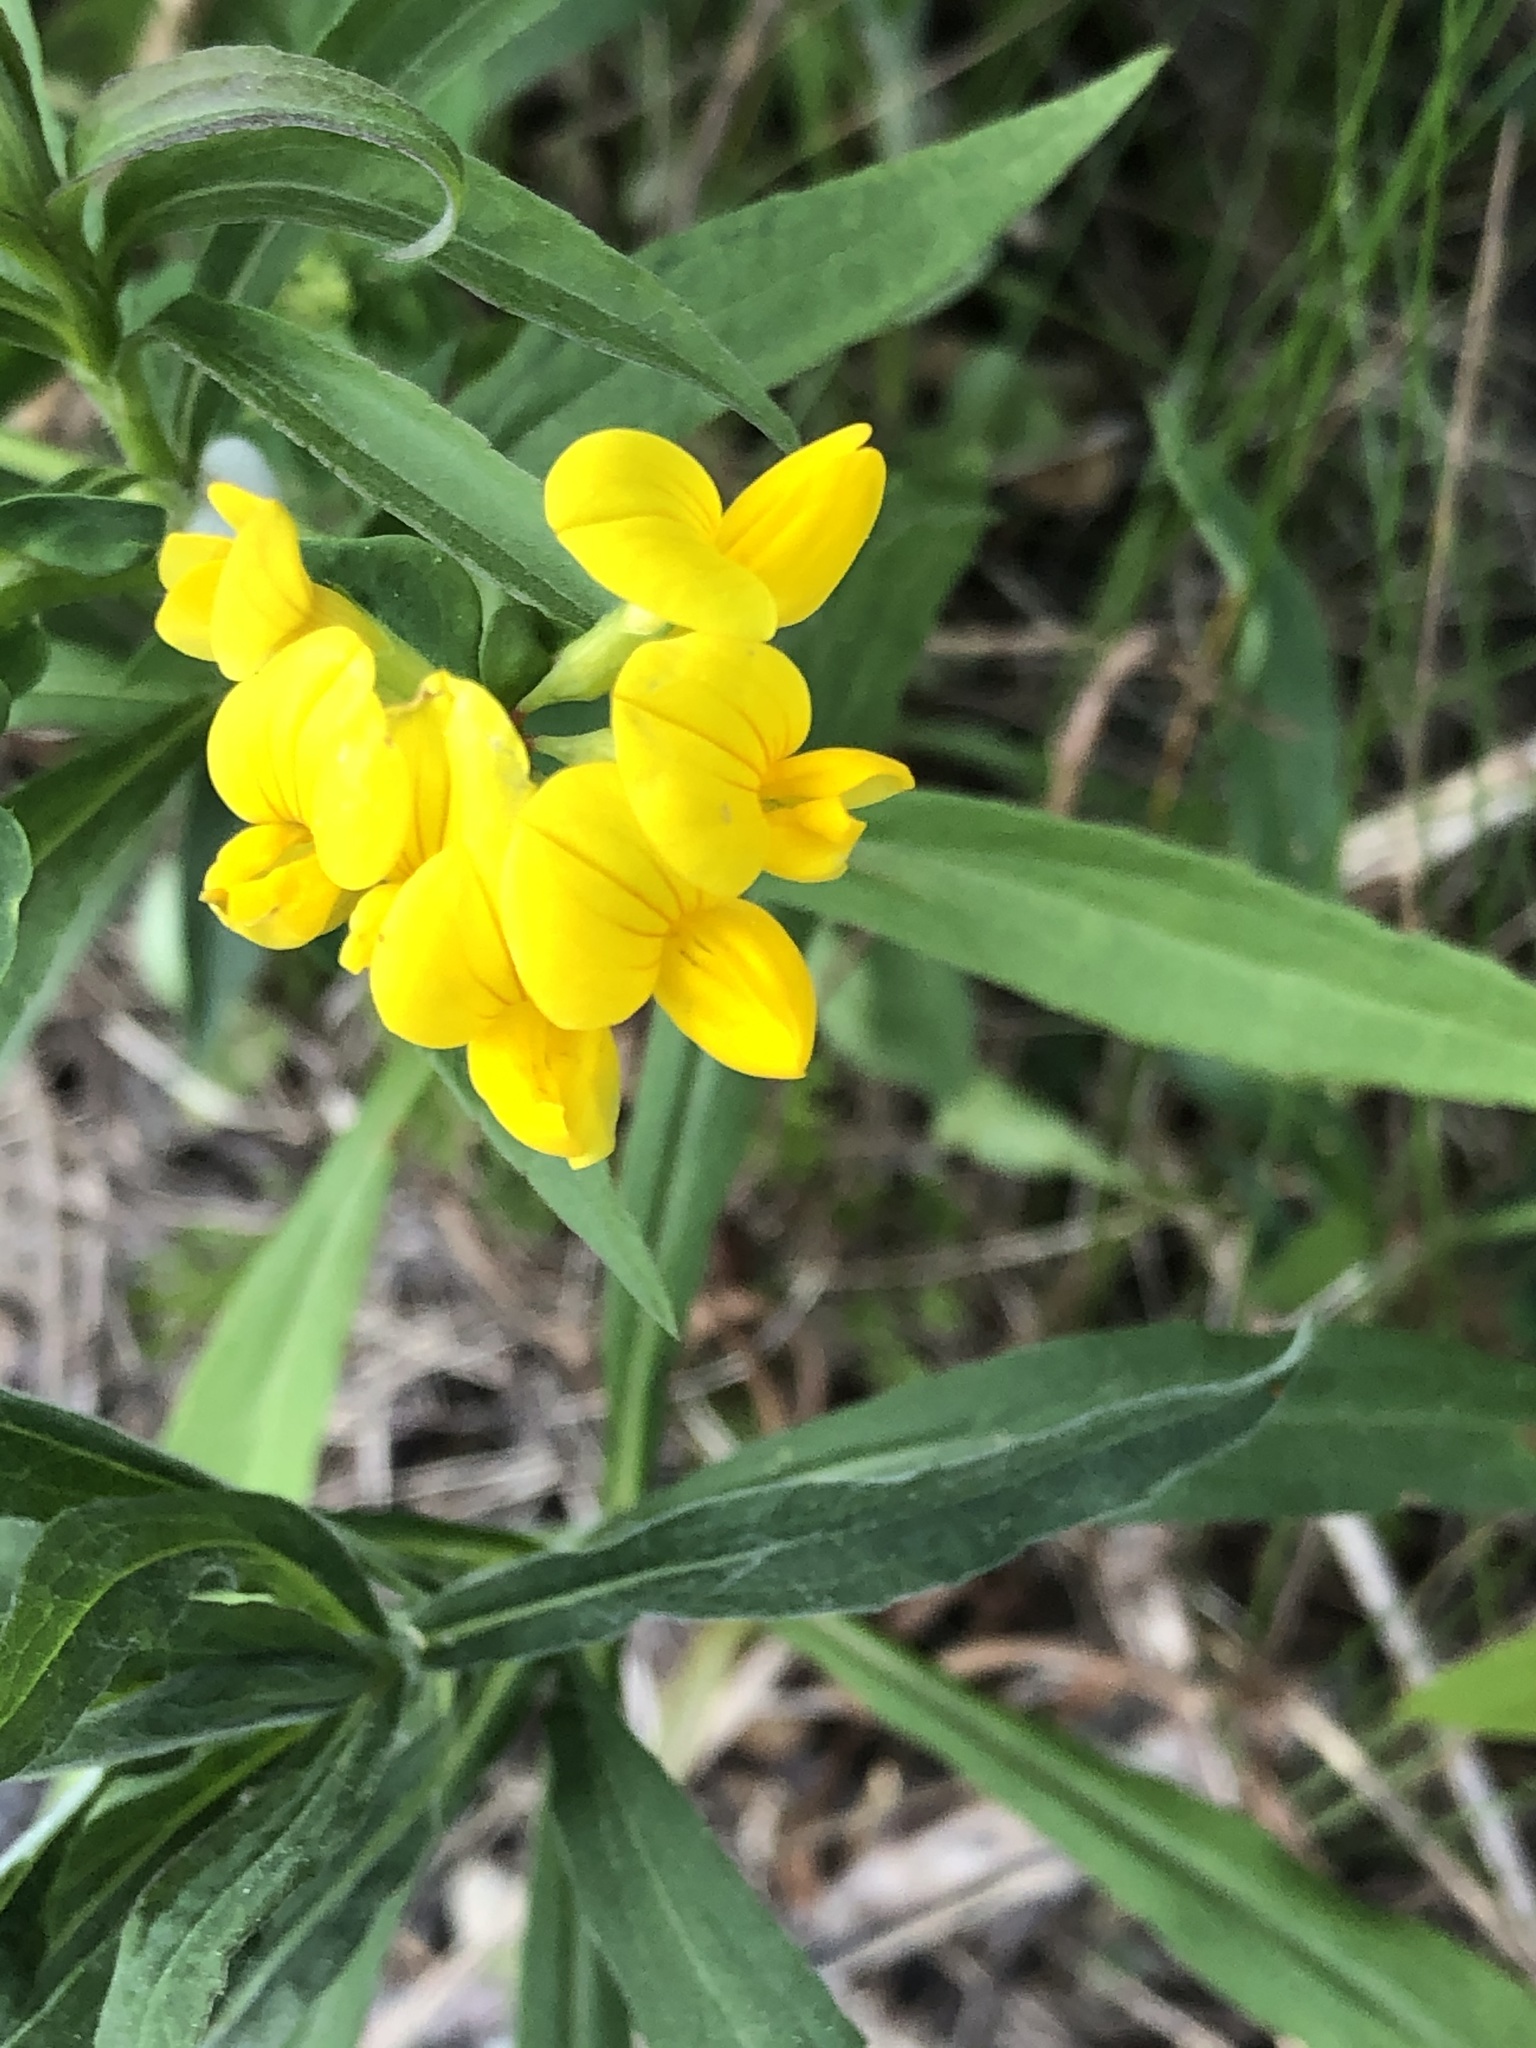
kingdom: Plantae
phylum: Tracheophyta
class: Magnoliopsida
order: Fabales
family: Fabaceae
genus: Lotus
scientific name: Lotus corniculatus
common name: Common bird's-foot-trefoil
